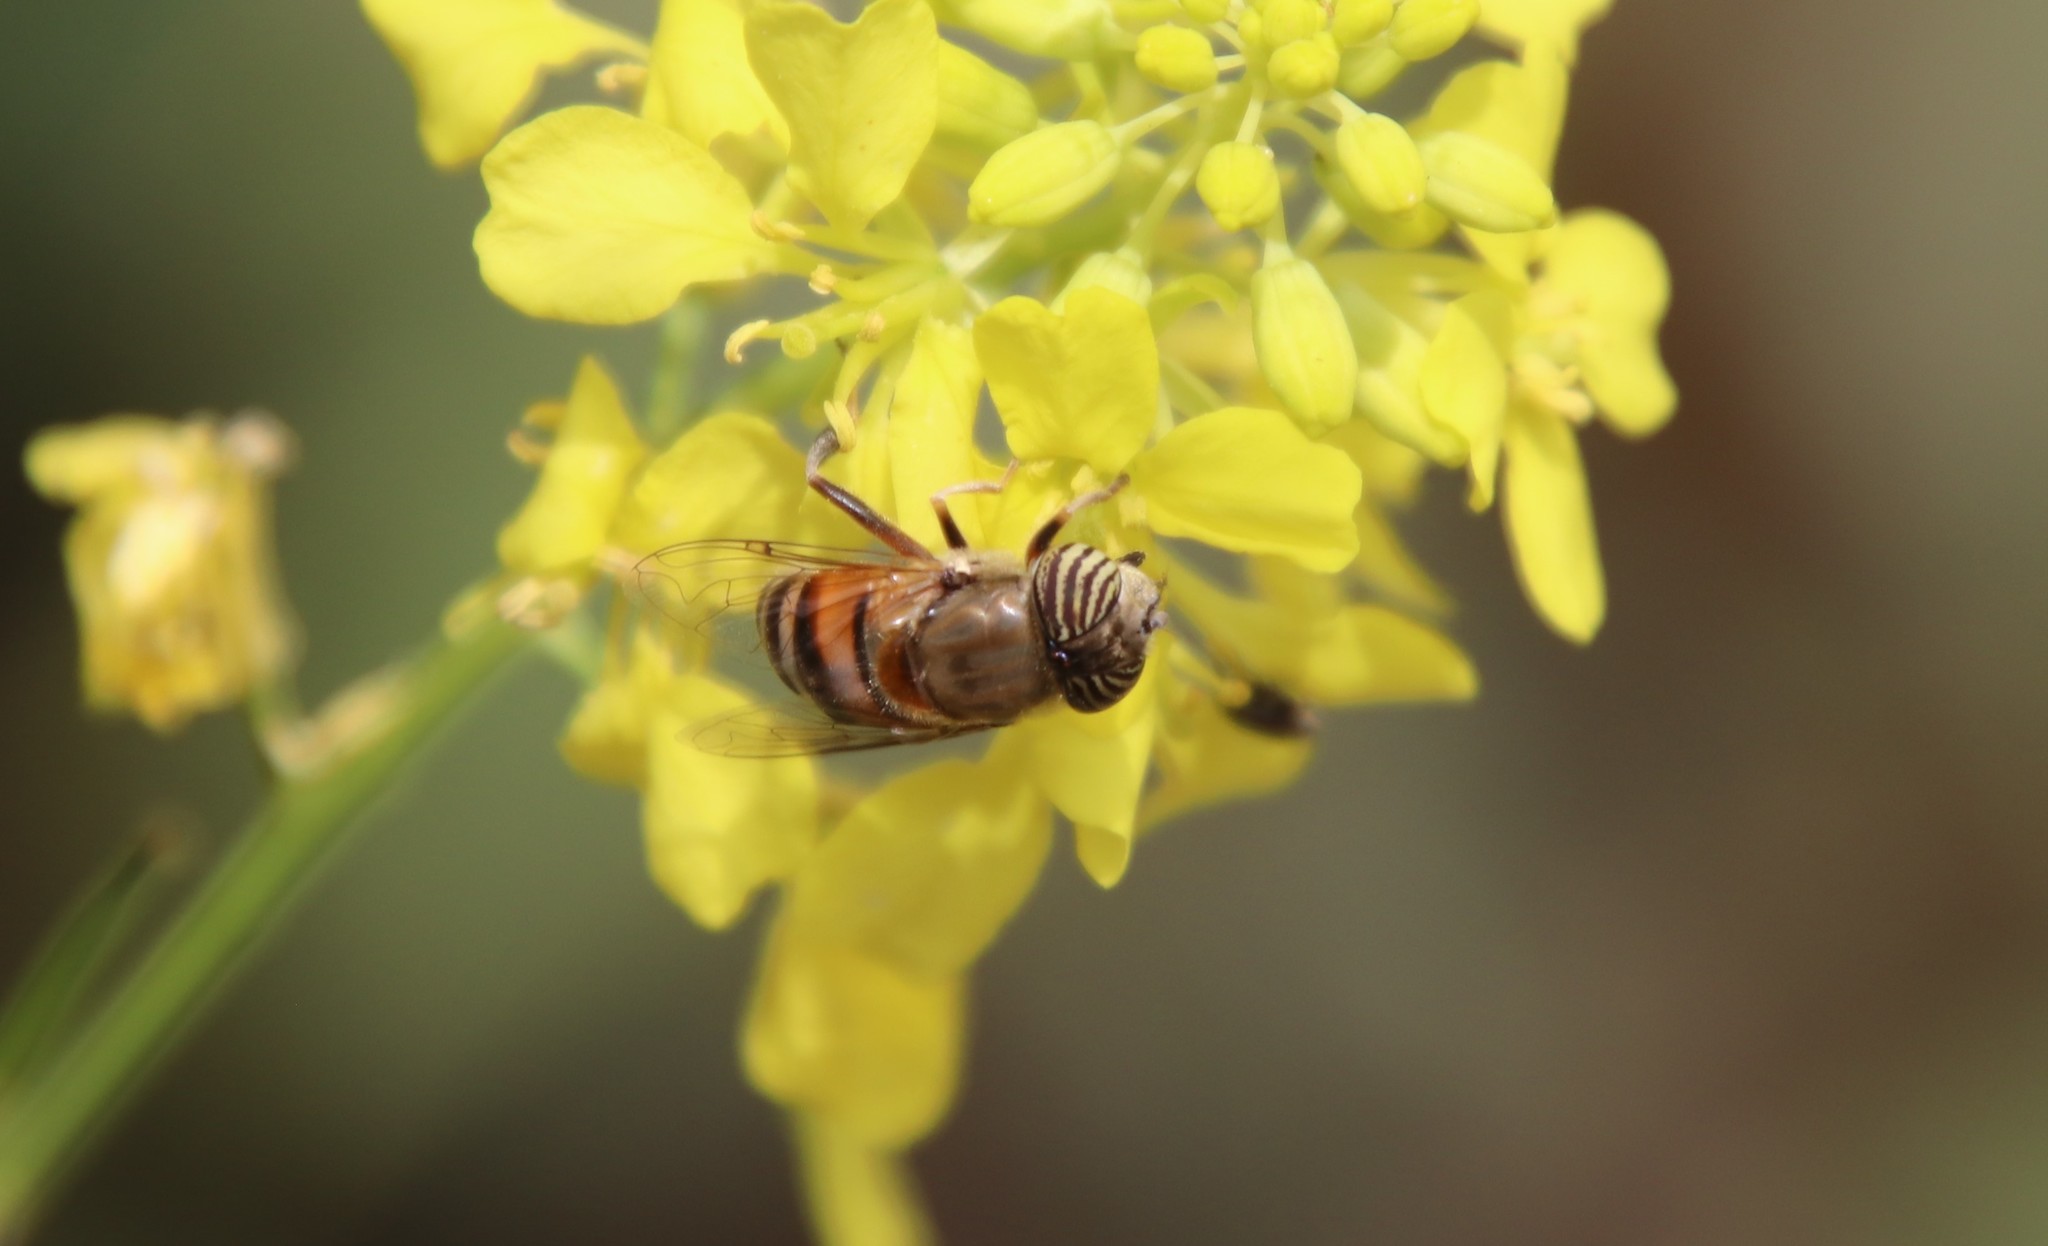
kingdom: Animalia
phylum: Arthropoda
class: Insecta
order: Diptera
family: Syrphidae
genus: Eristalinus
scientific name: Eristalinus taeniops
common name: Syrphid fly
